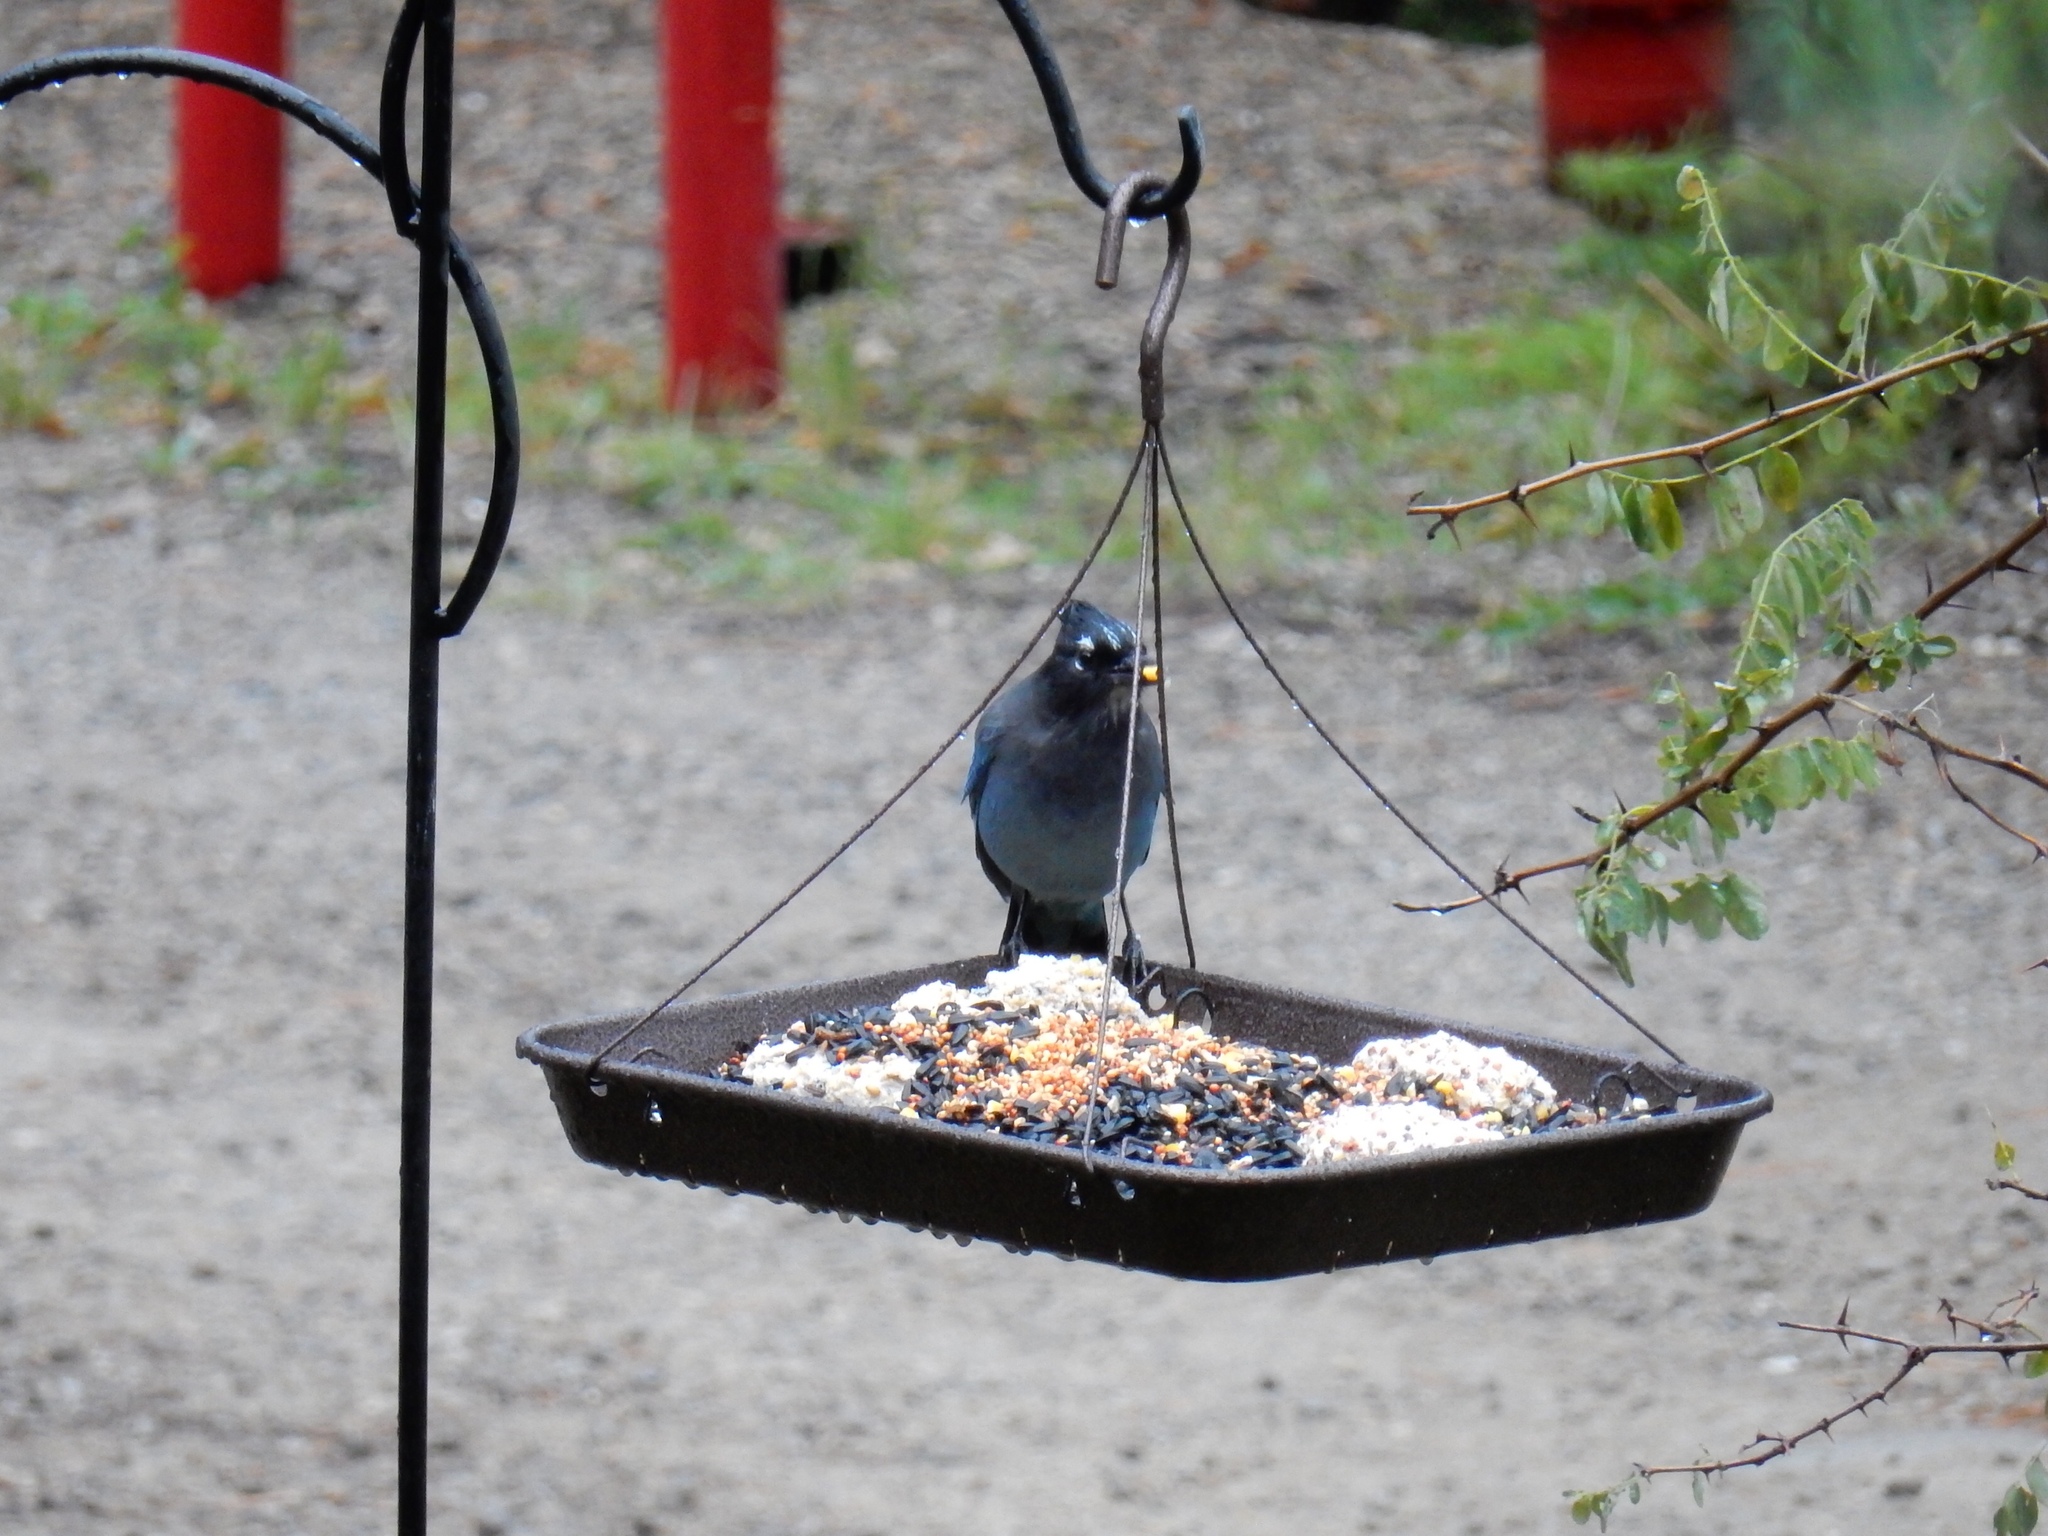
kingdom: Animalia
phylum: Chordata
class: Aves
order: Passeriformes
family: Corvidae
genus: Cyanocitta
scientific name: Cyanocitta stelleri
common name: Steller's jay
